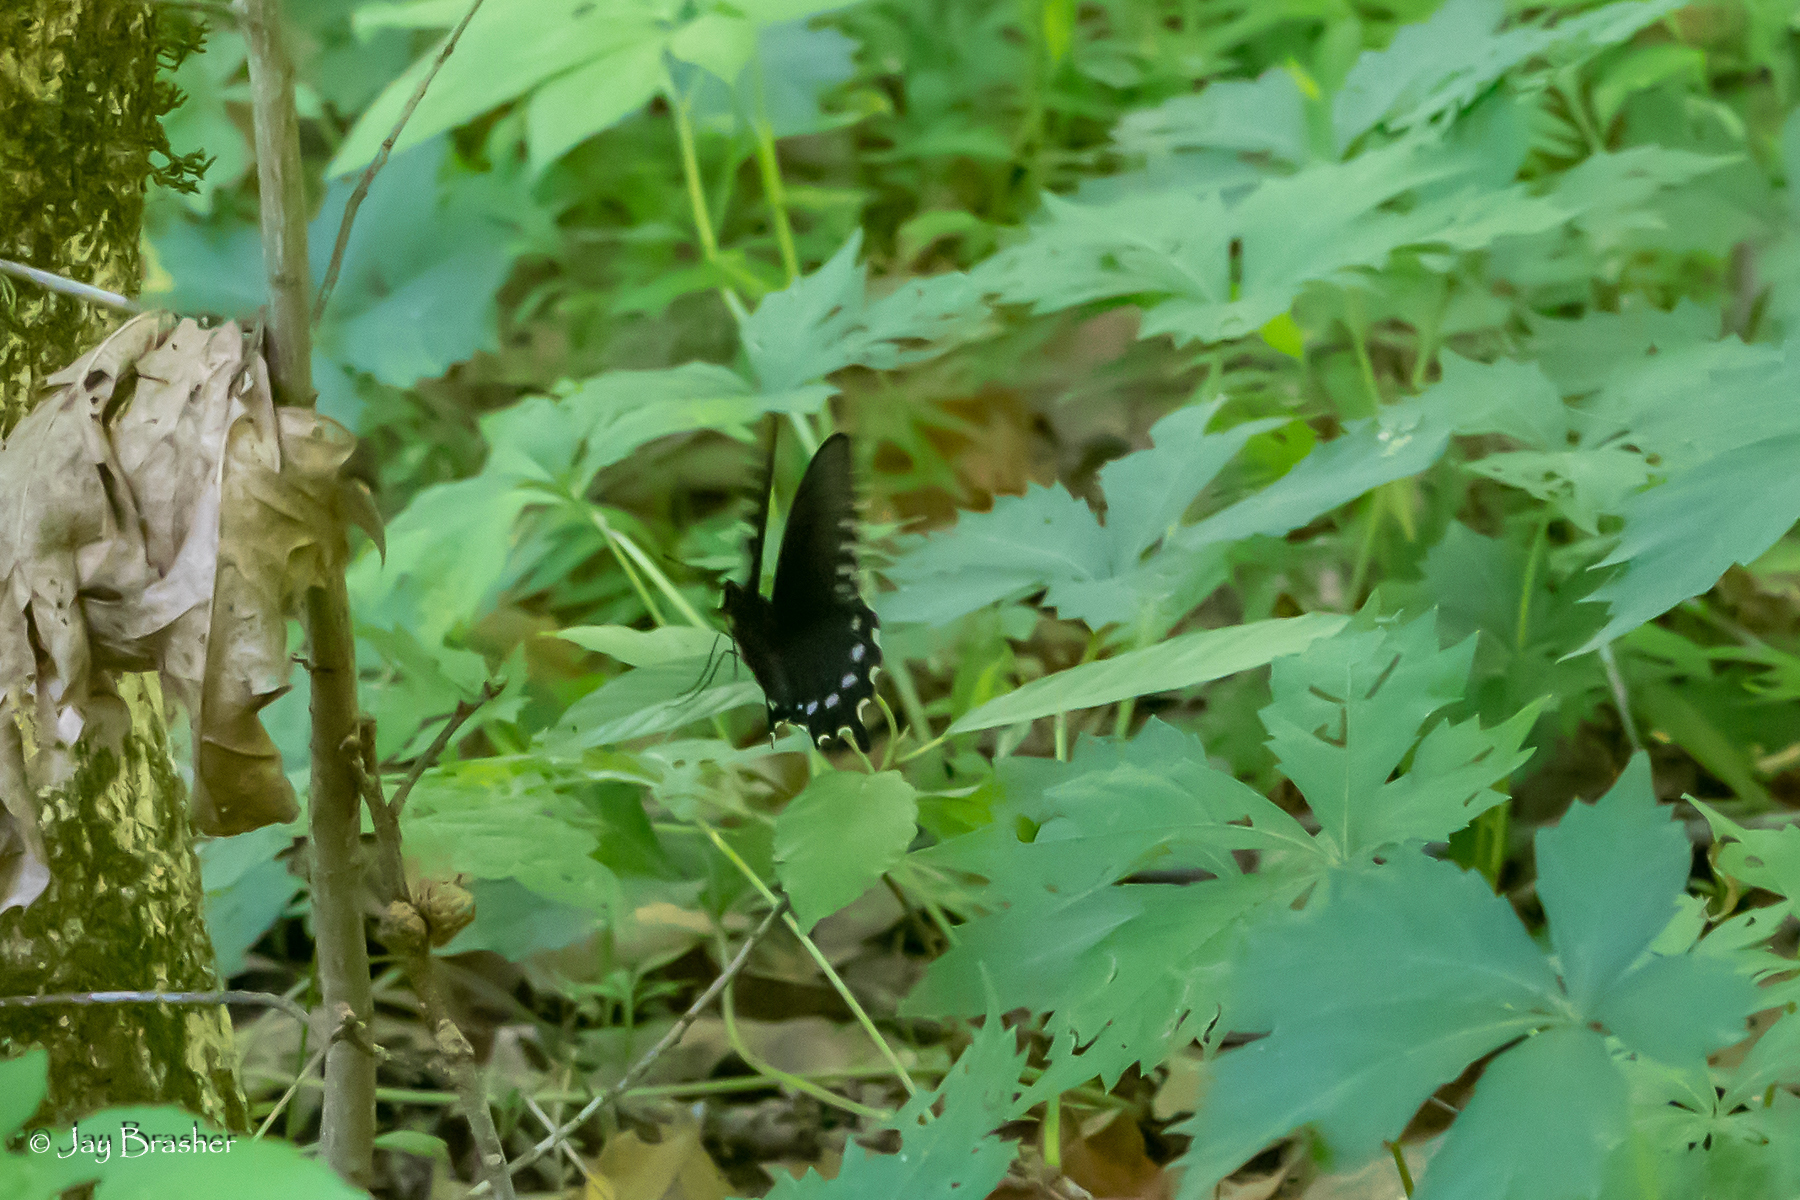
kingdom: Animalia
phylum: Arthropoda
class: Insecta
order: Lepidoptera
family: Papilionidae
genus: Battus
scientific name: Battus philenor
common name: Pipevine swallowtail
